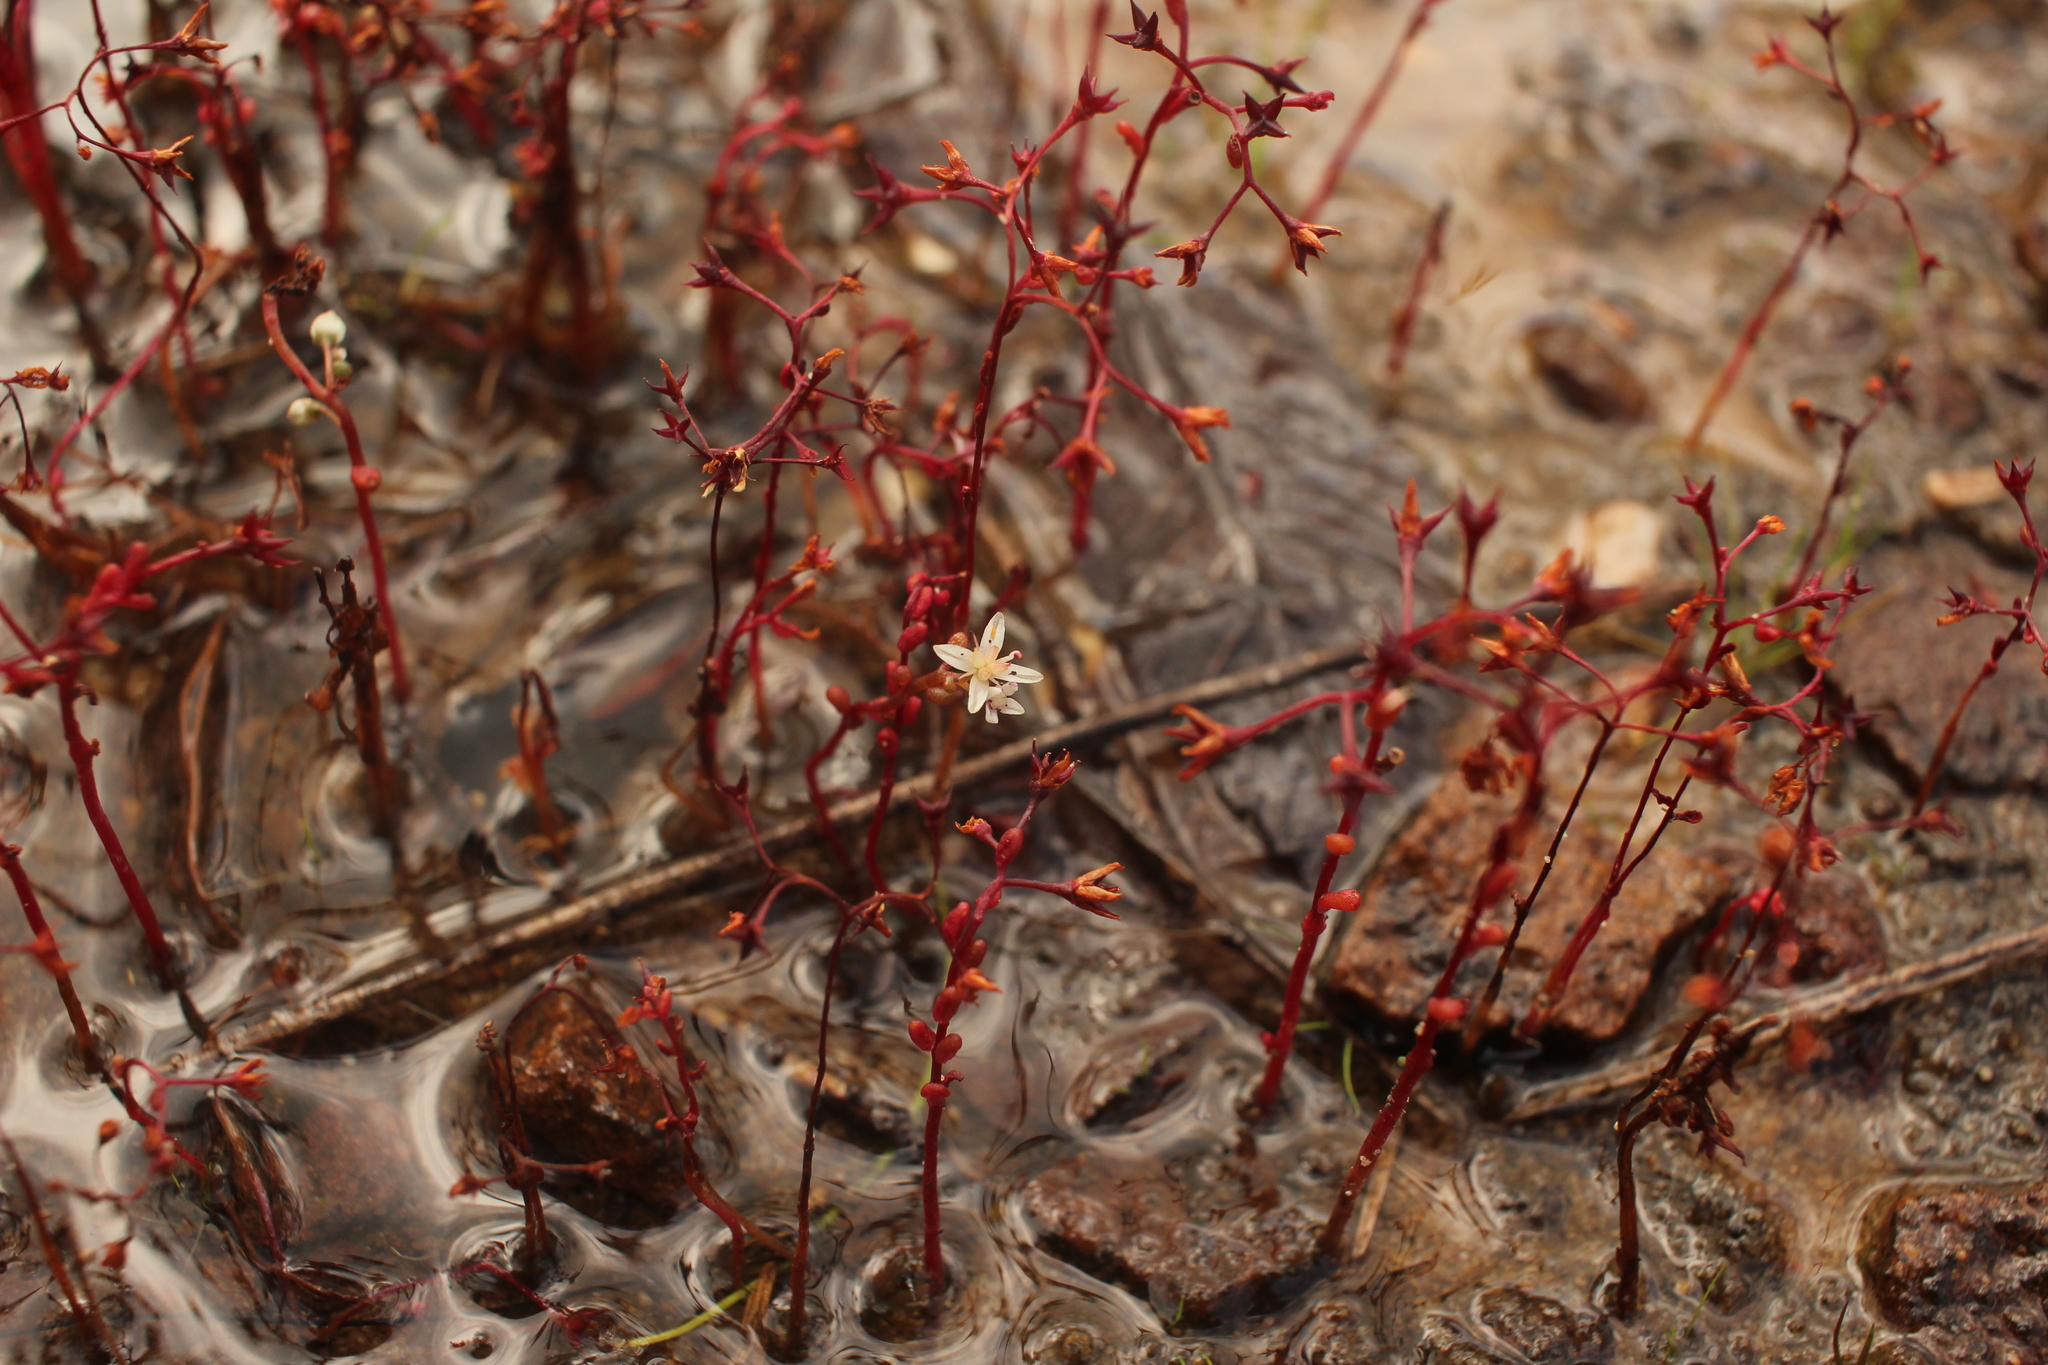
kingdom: Plantae
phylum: Tracheophyta
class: Magnoliopsida
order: Saxifragales
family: Crassulaceae
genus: Sedum
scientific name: Sedum smallii
